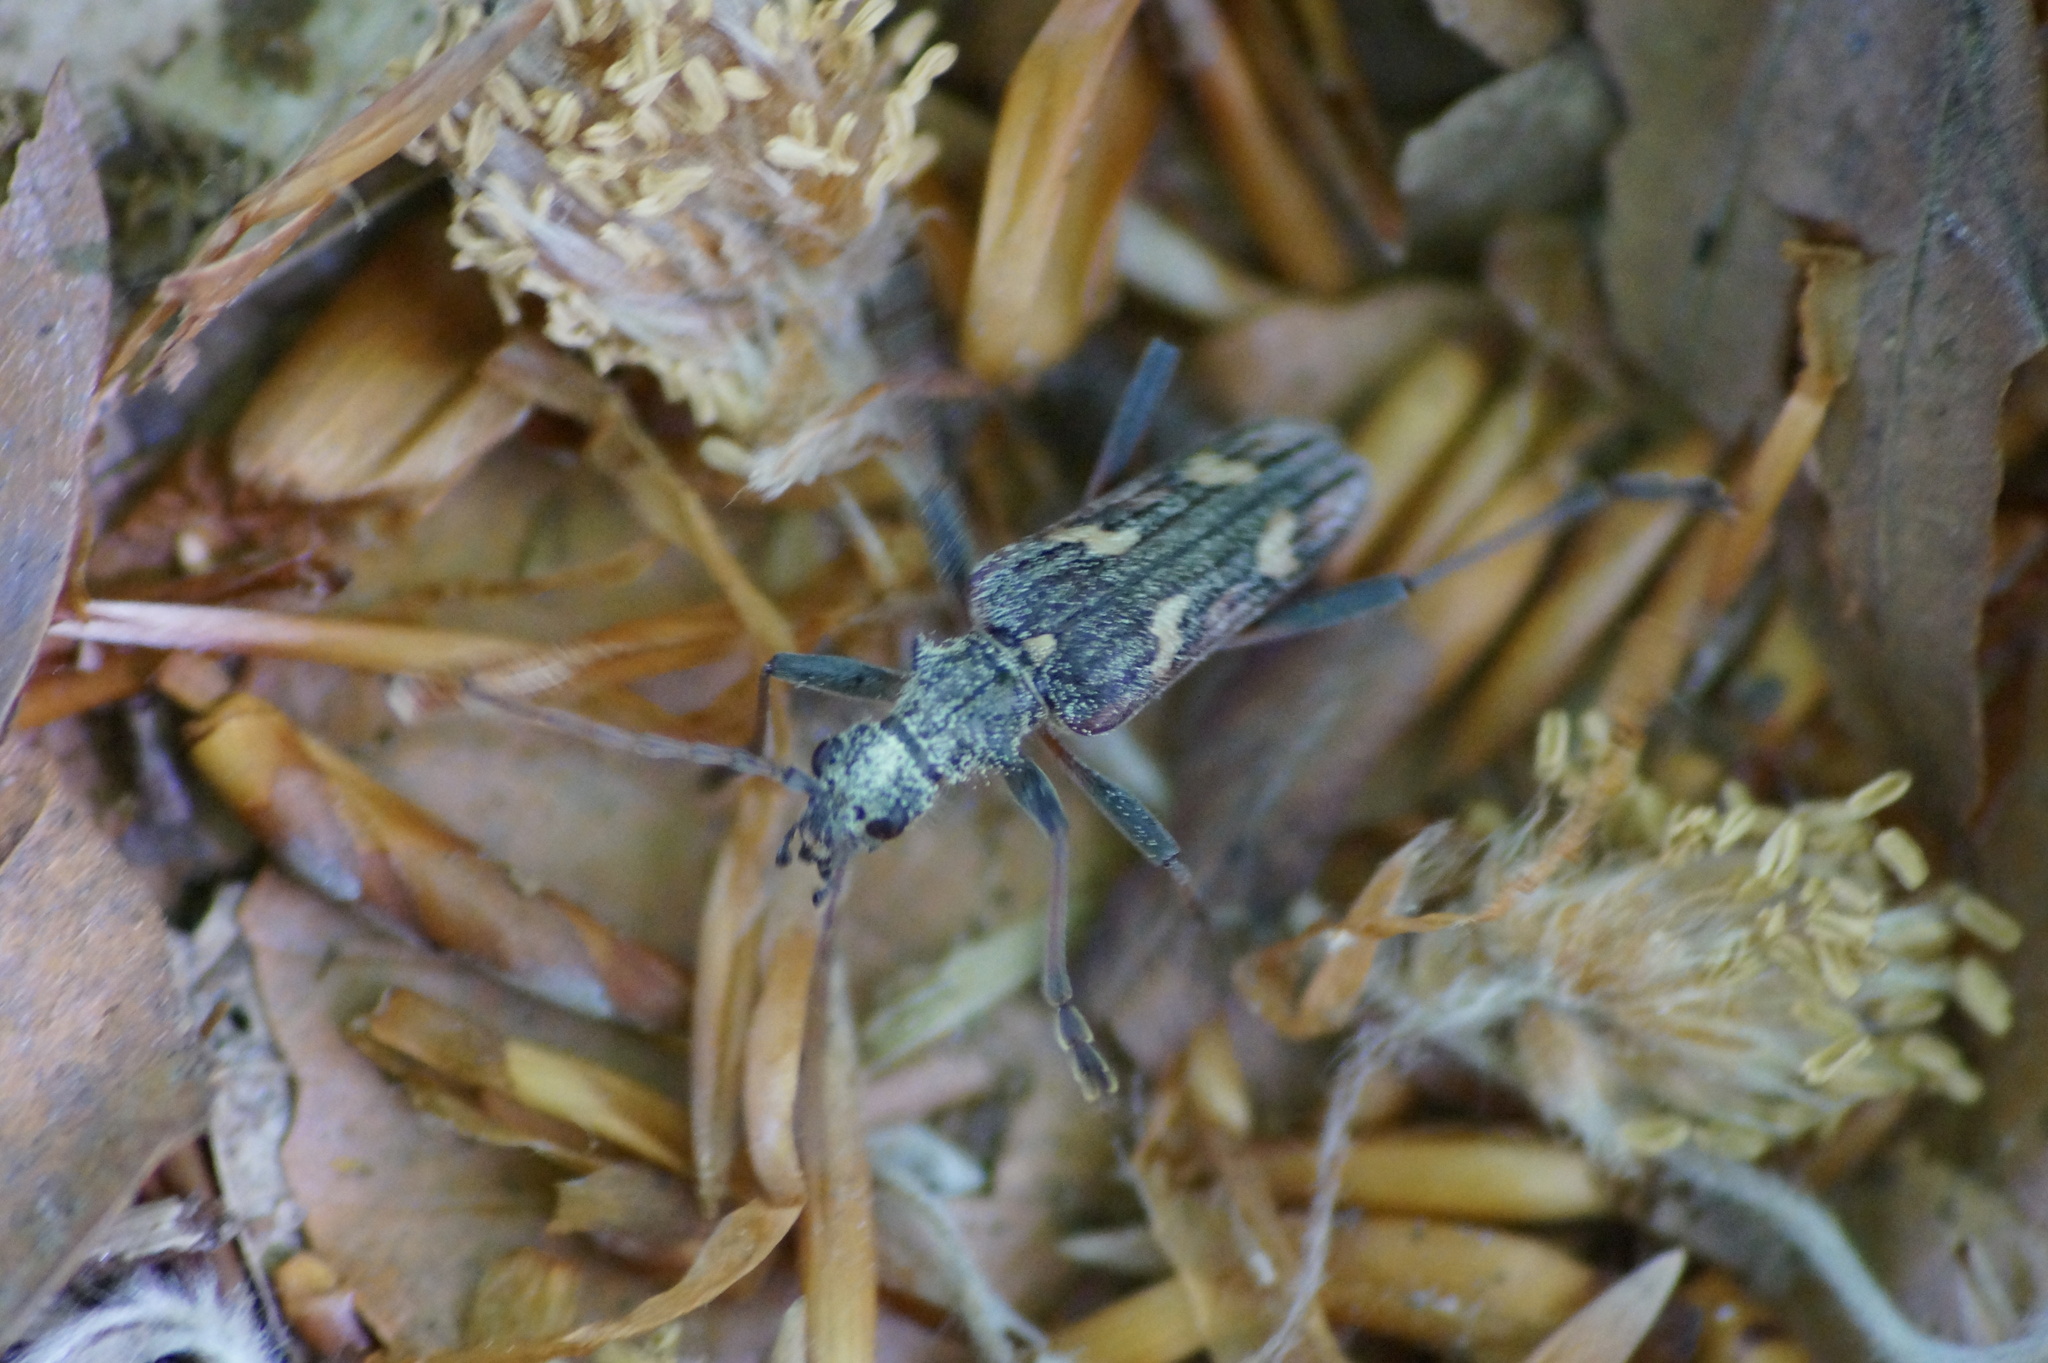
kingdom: Animalia
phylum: Arthropoda
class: Insecta
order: Coleoptera
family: Cerambycidae
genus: Rhagium
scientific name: Rhagium bifasciatum
